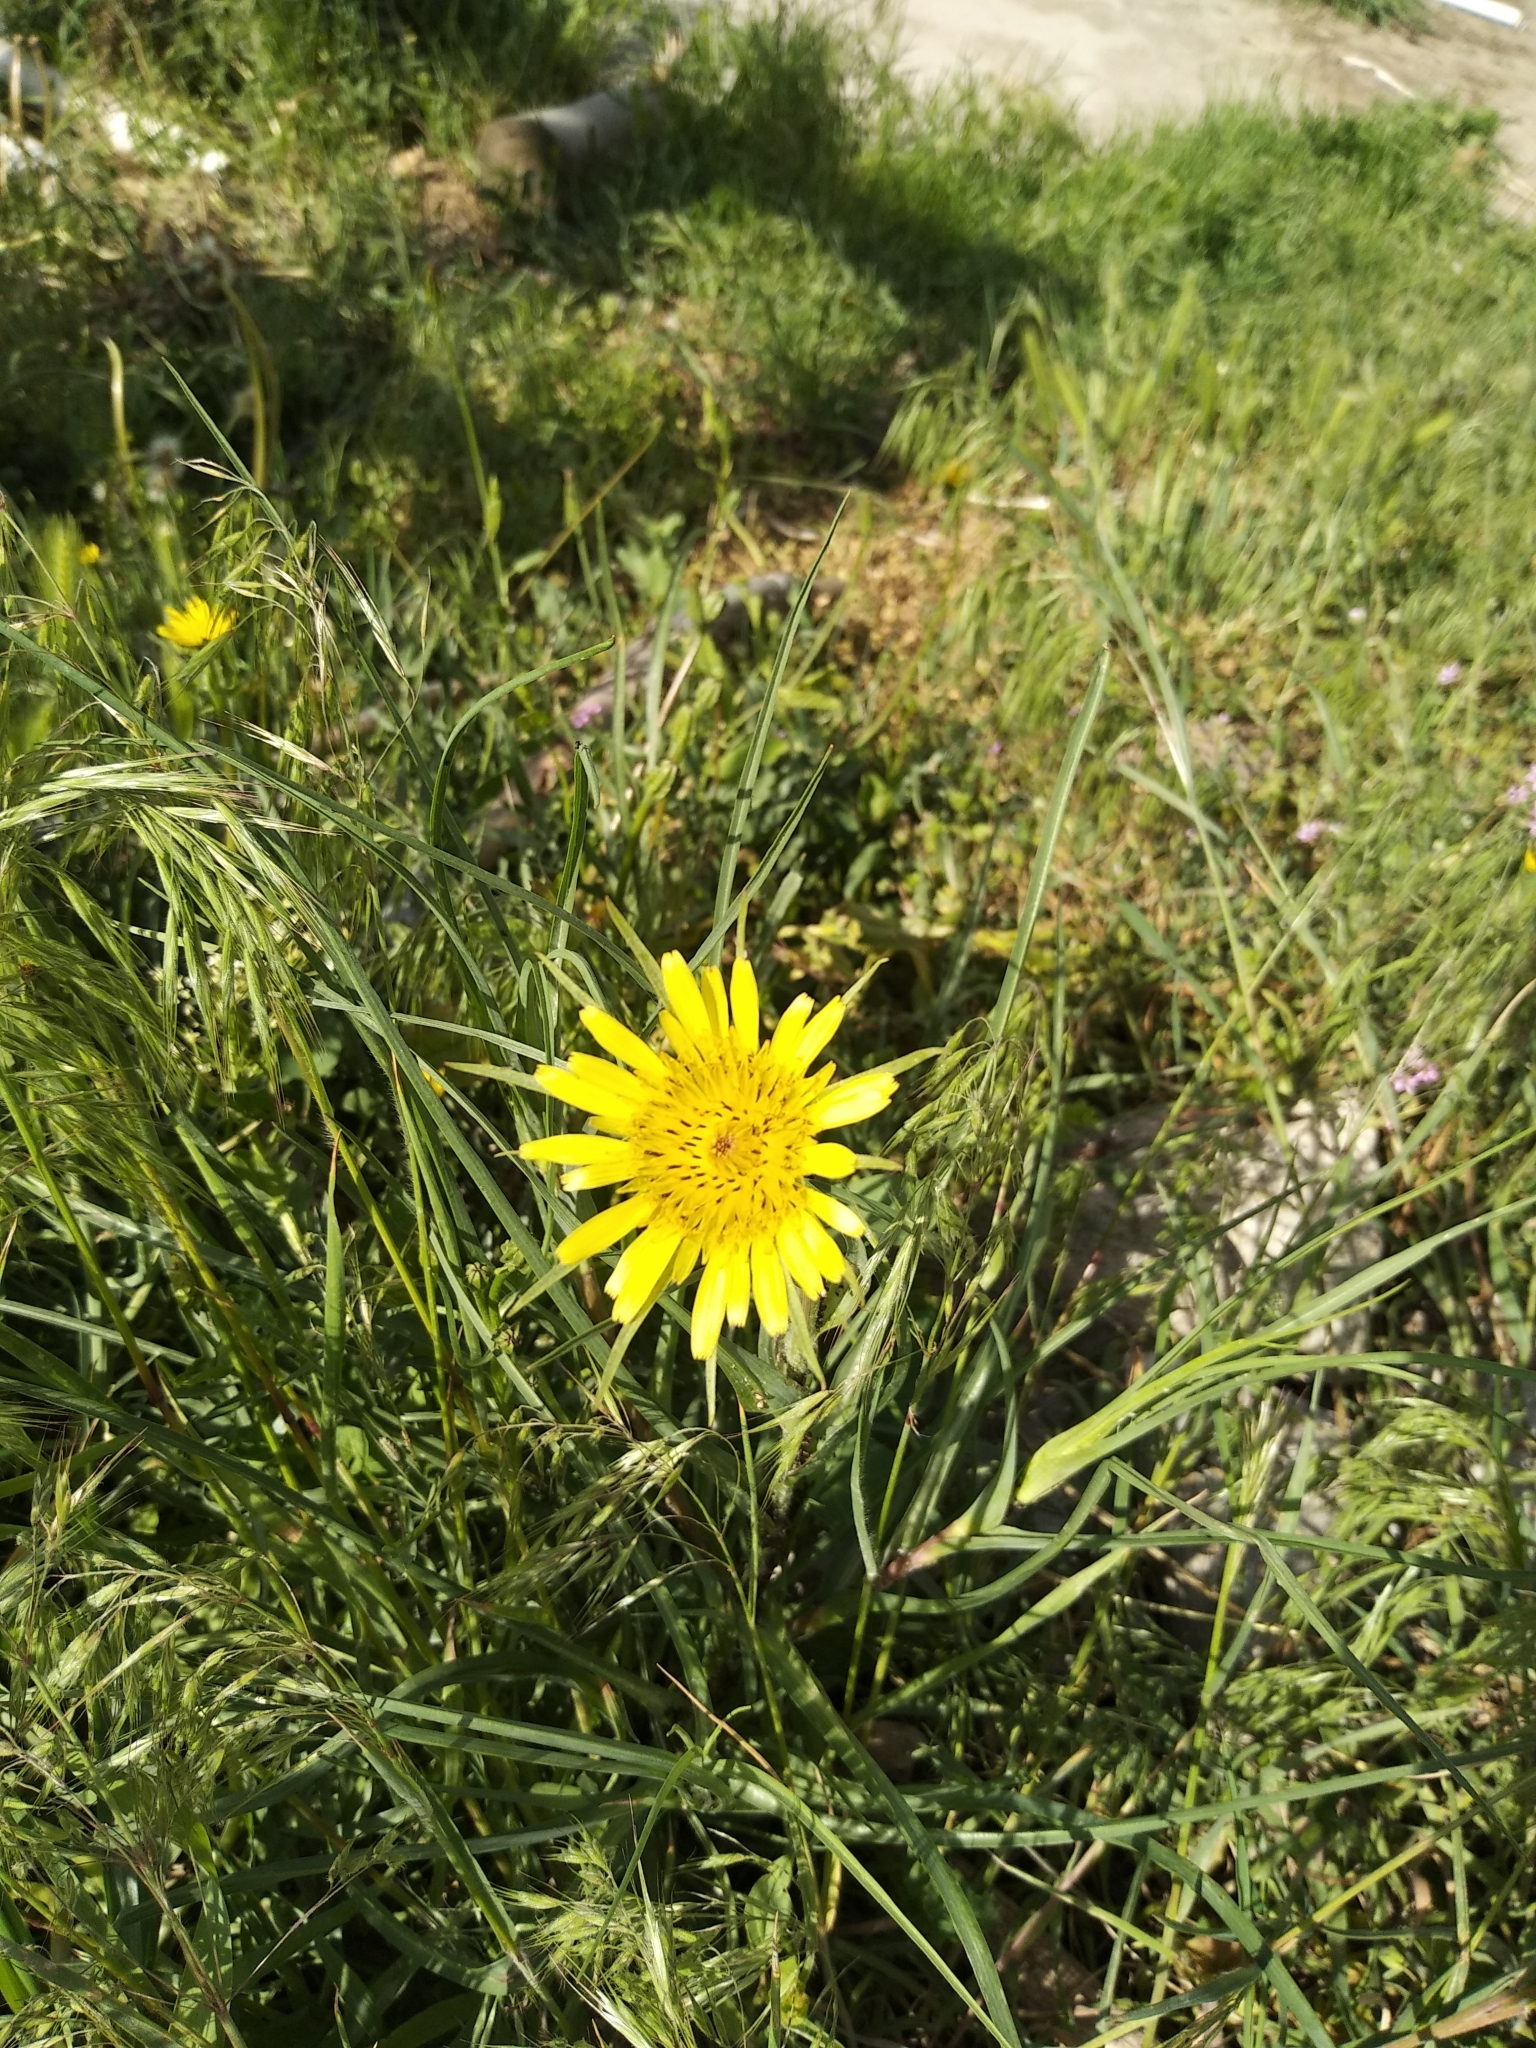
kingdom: Plantae
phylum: Tracheophyta
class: Magnoliopsida
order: Asterales
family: Asteraceae
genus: Tragopogon
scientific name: Tragopogon dubius
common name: Yellow salsify
